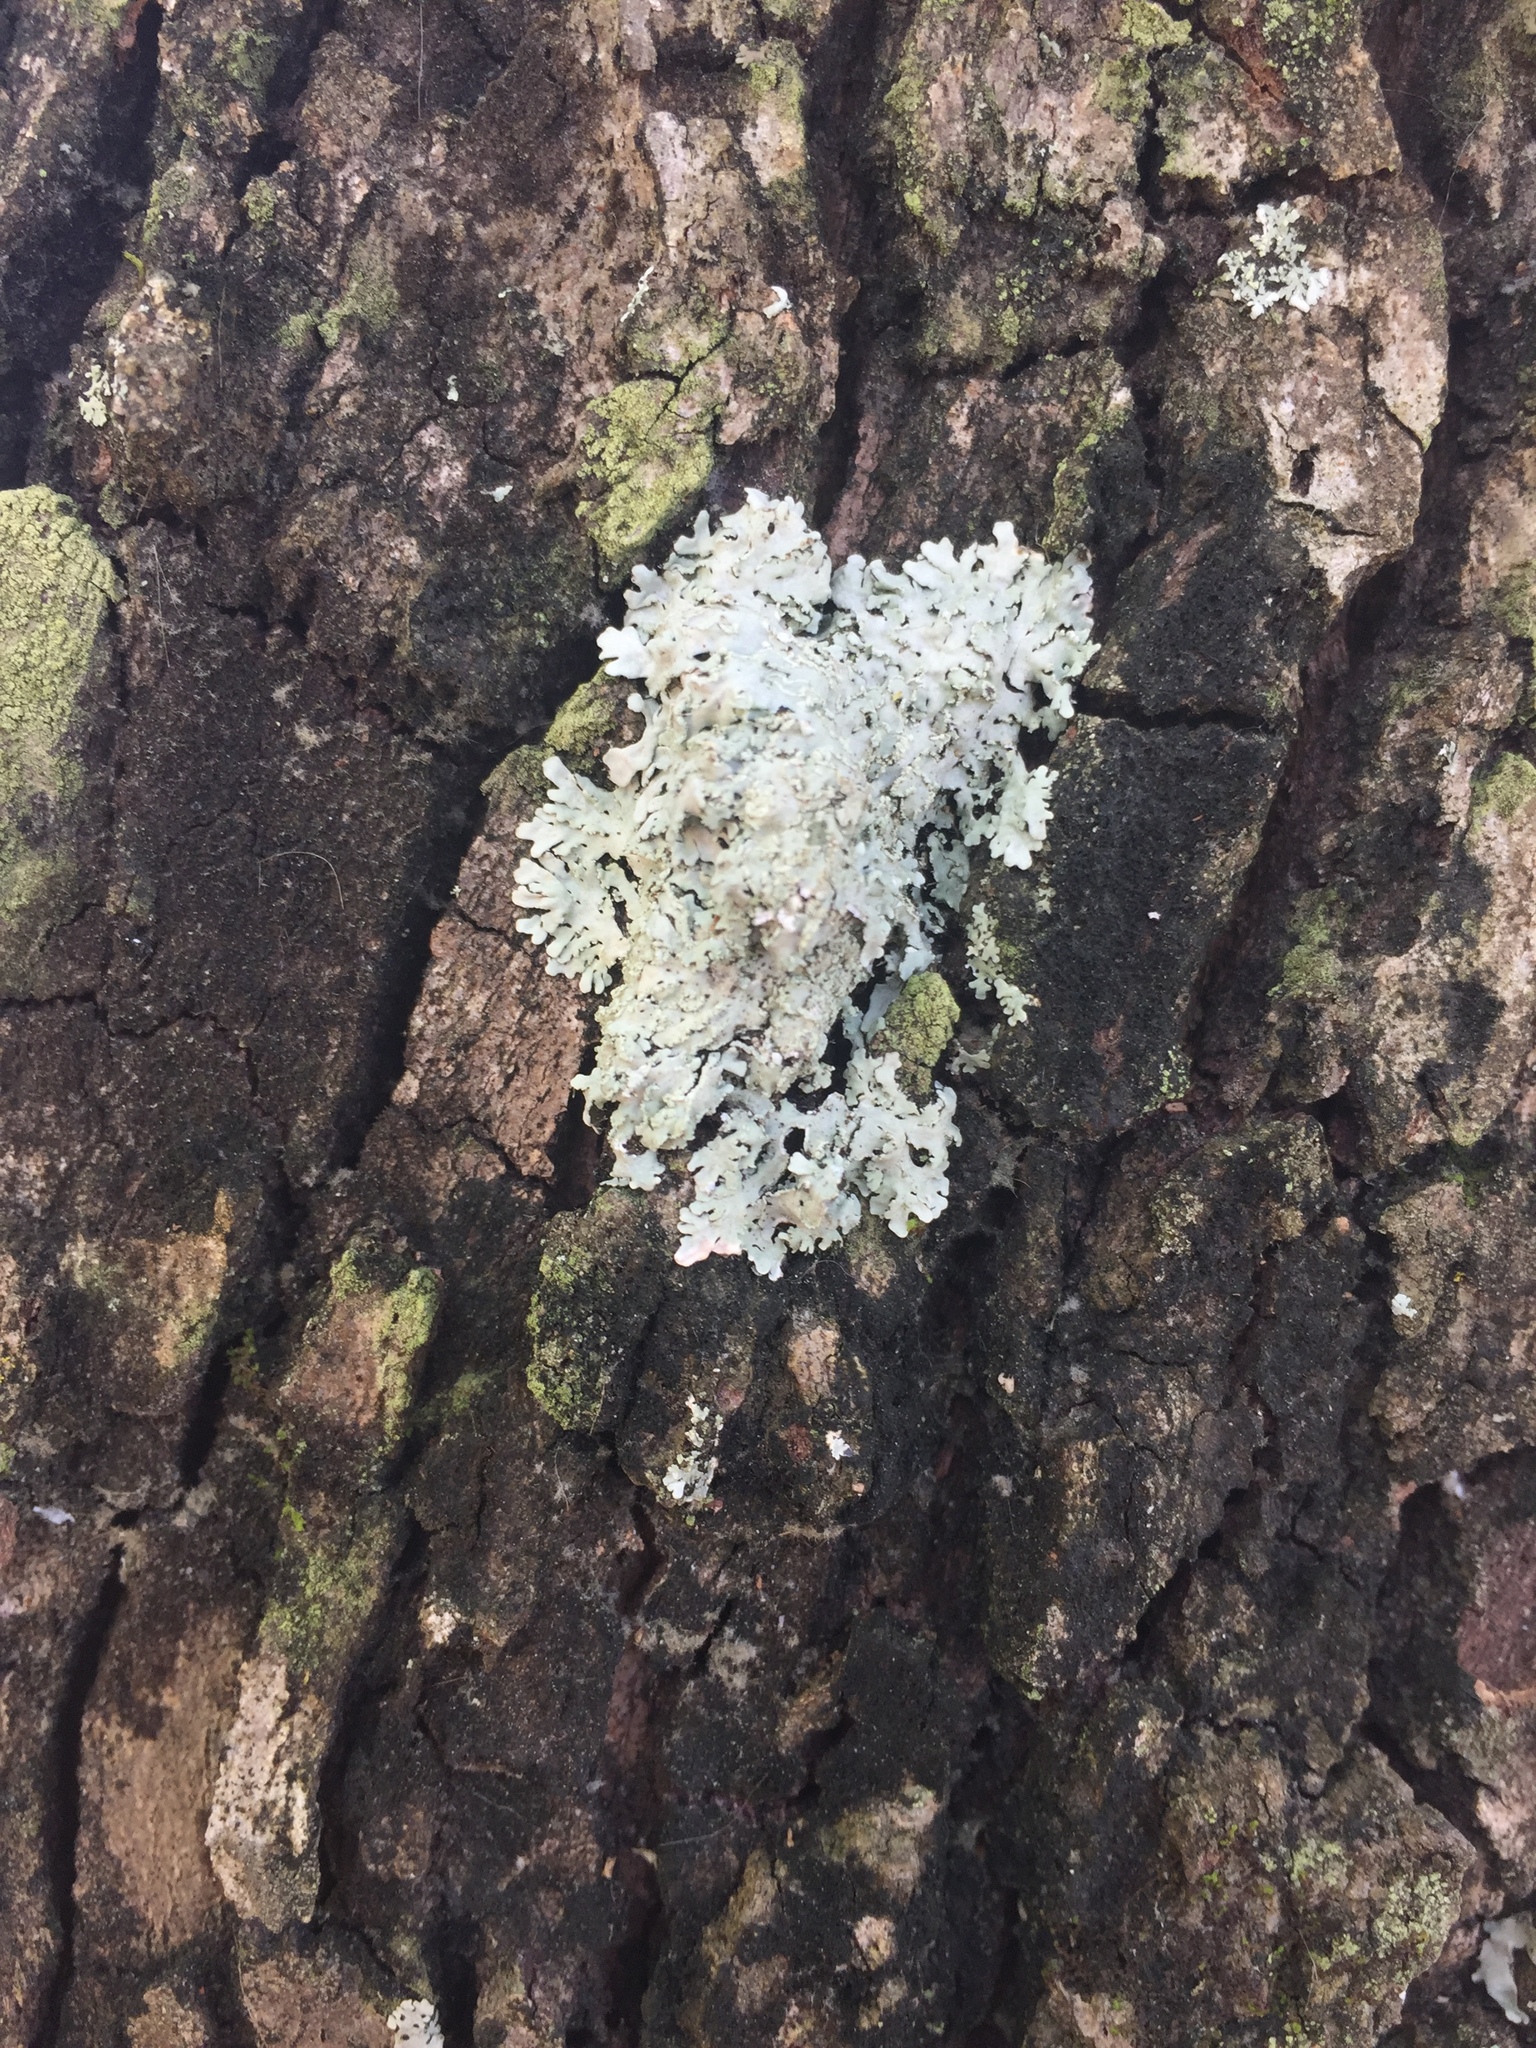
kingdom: Fungi
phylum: Ascomycota
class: Lecanoromycetes
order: Caliciales
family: Physciaceae
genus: Polyblastidium
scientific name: Polyblastidium albicans
